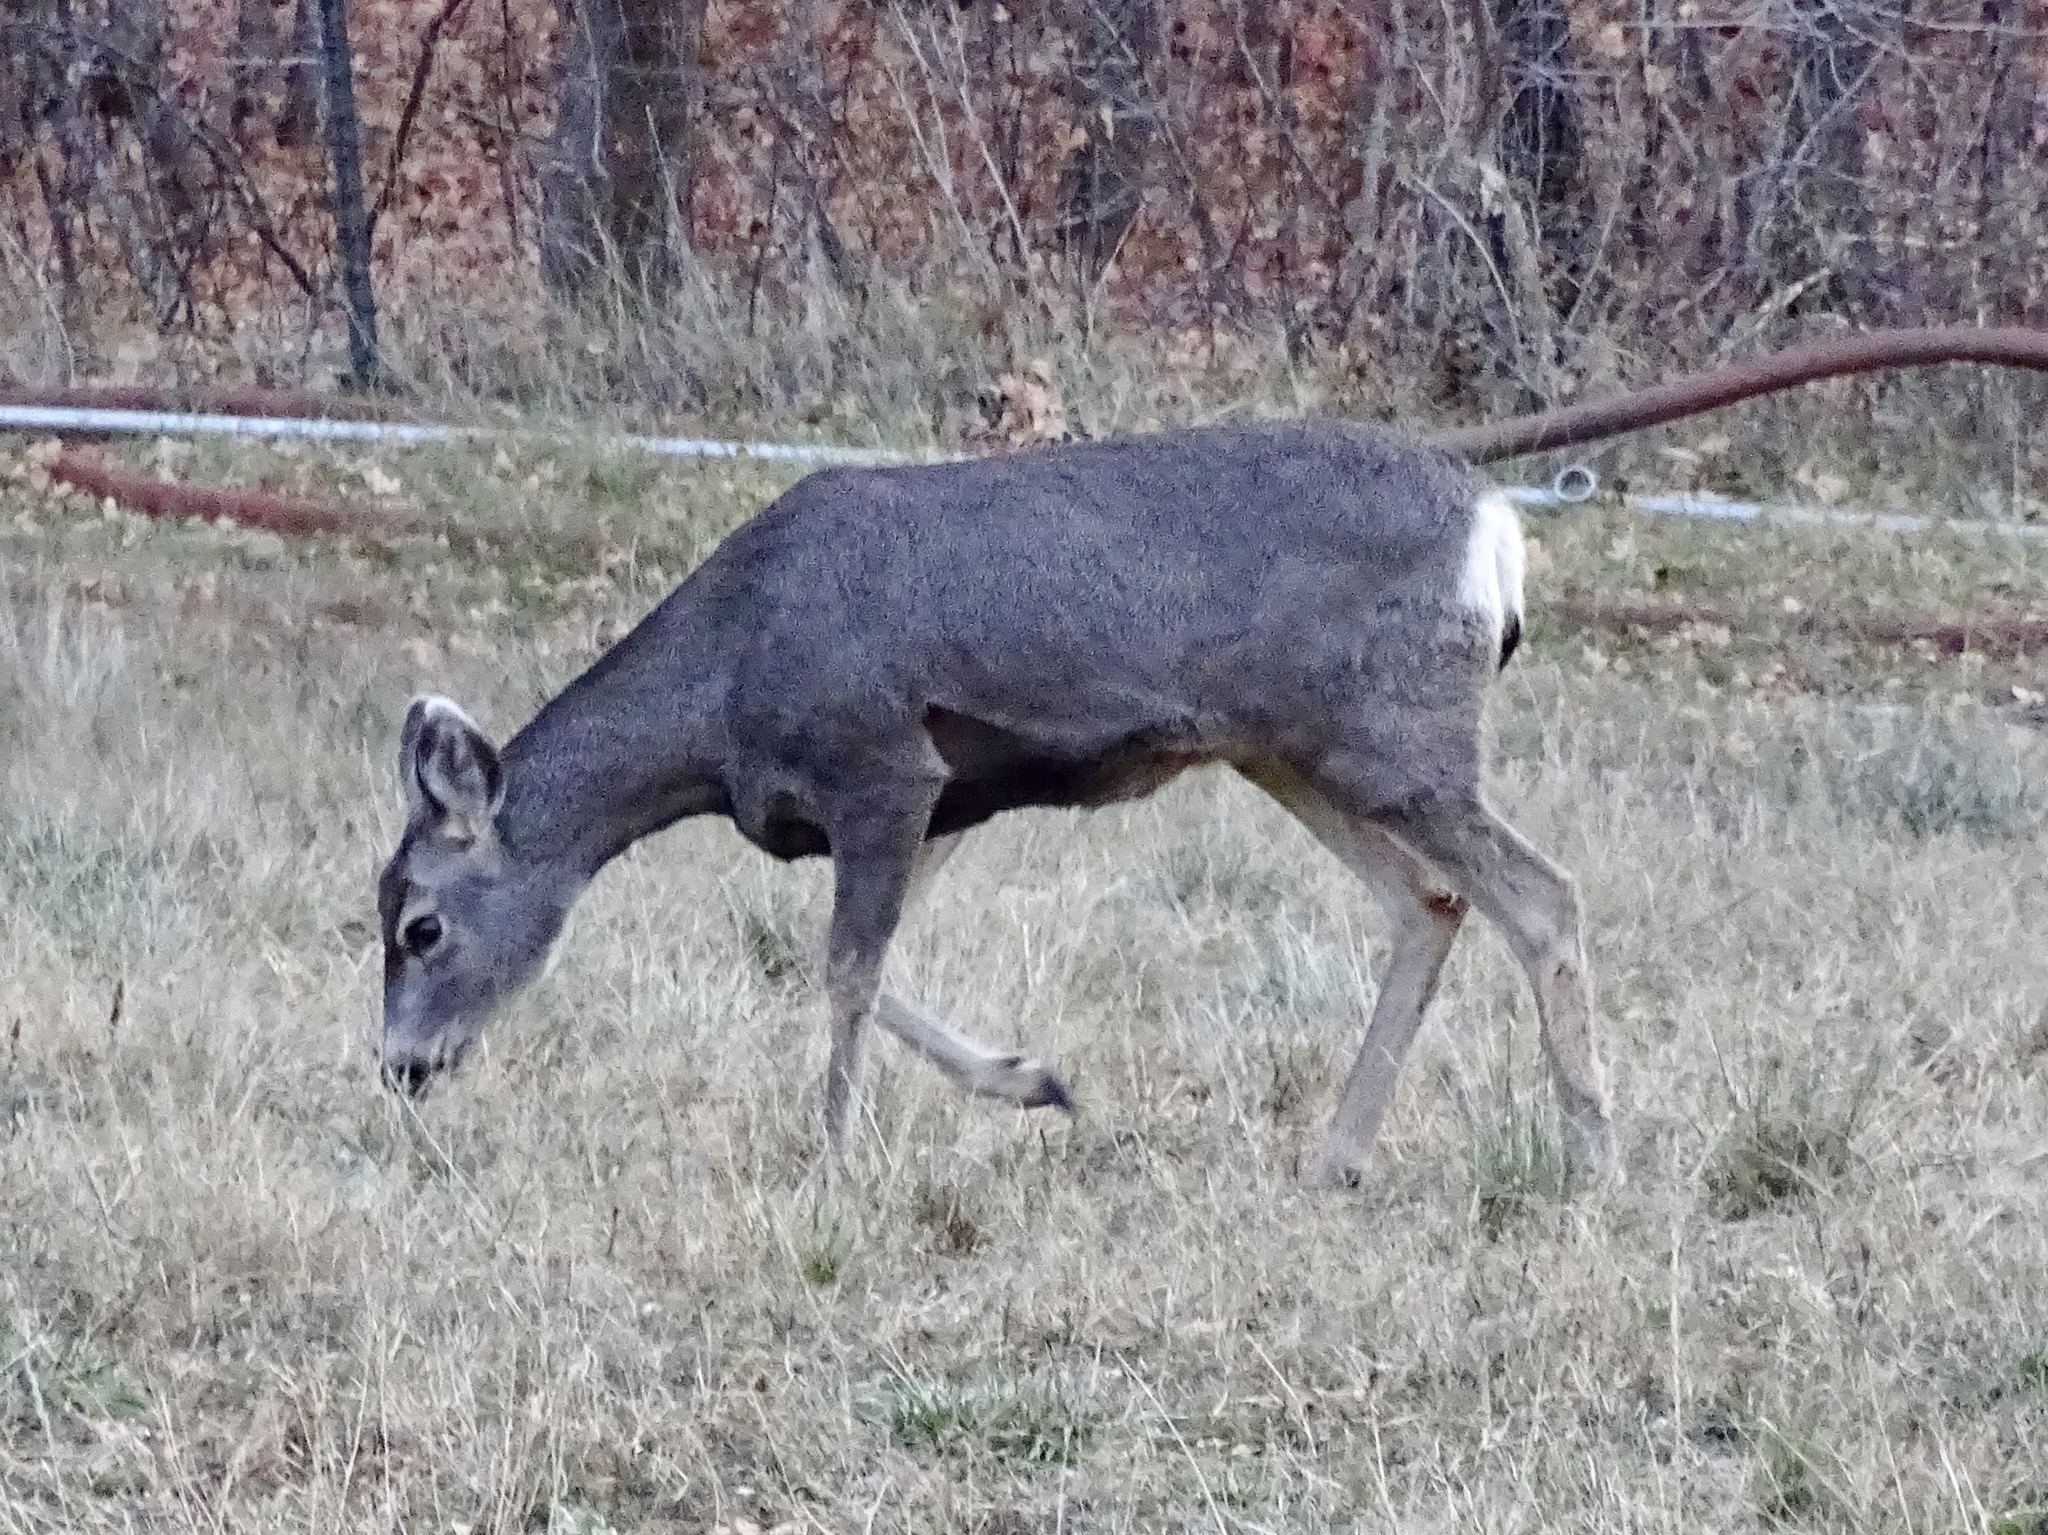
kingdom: Animalia
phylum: Chordata
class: Mammalia
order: Artiodactyla
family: Cervidae
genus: Odocoileus
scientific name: Odocoileus hemionus
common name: Mule deer
